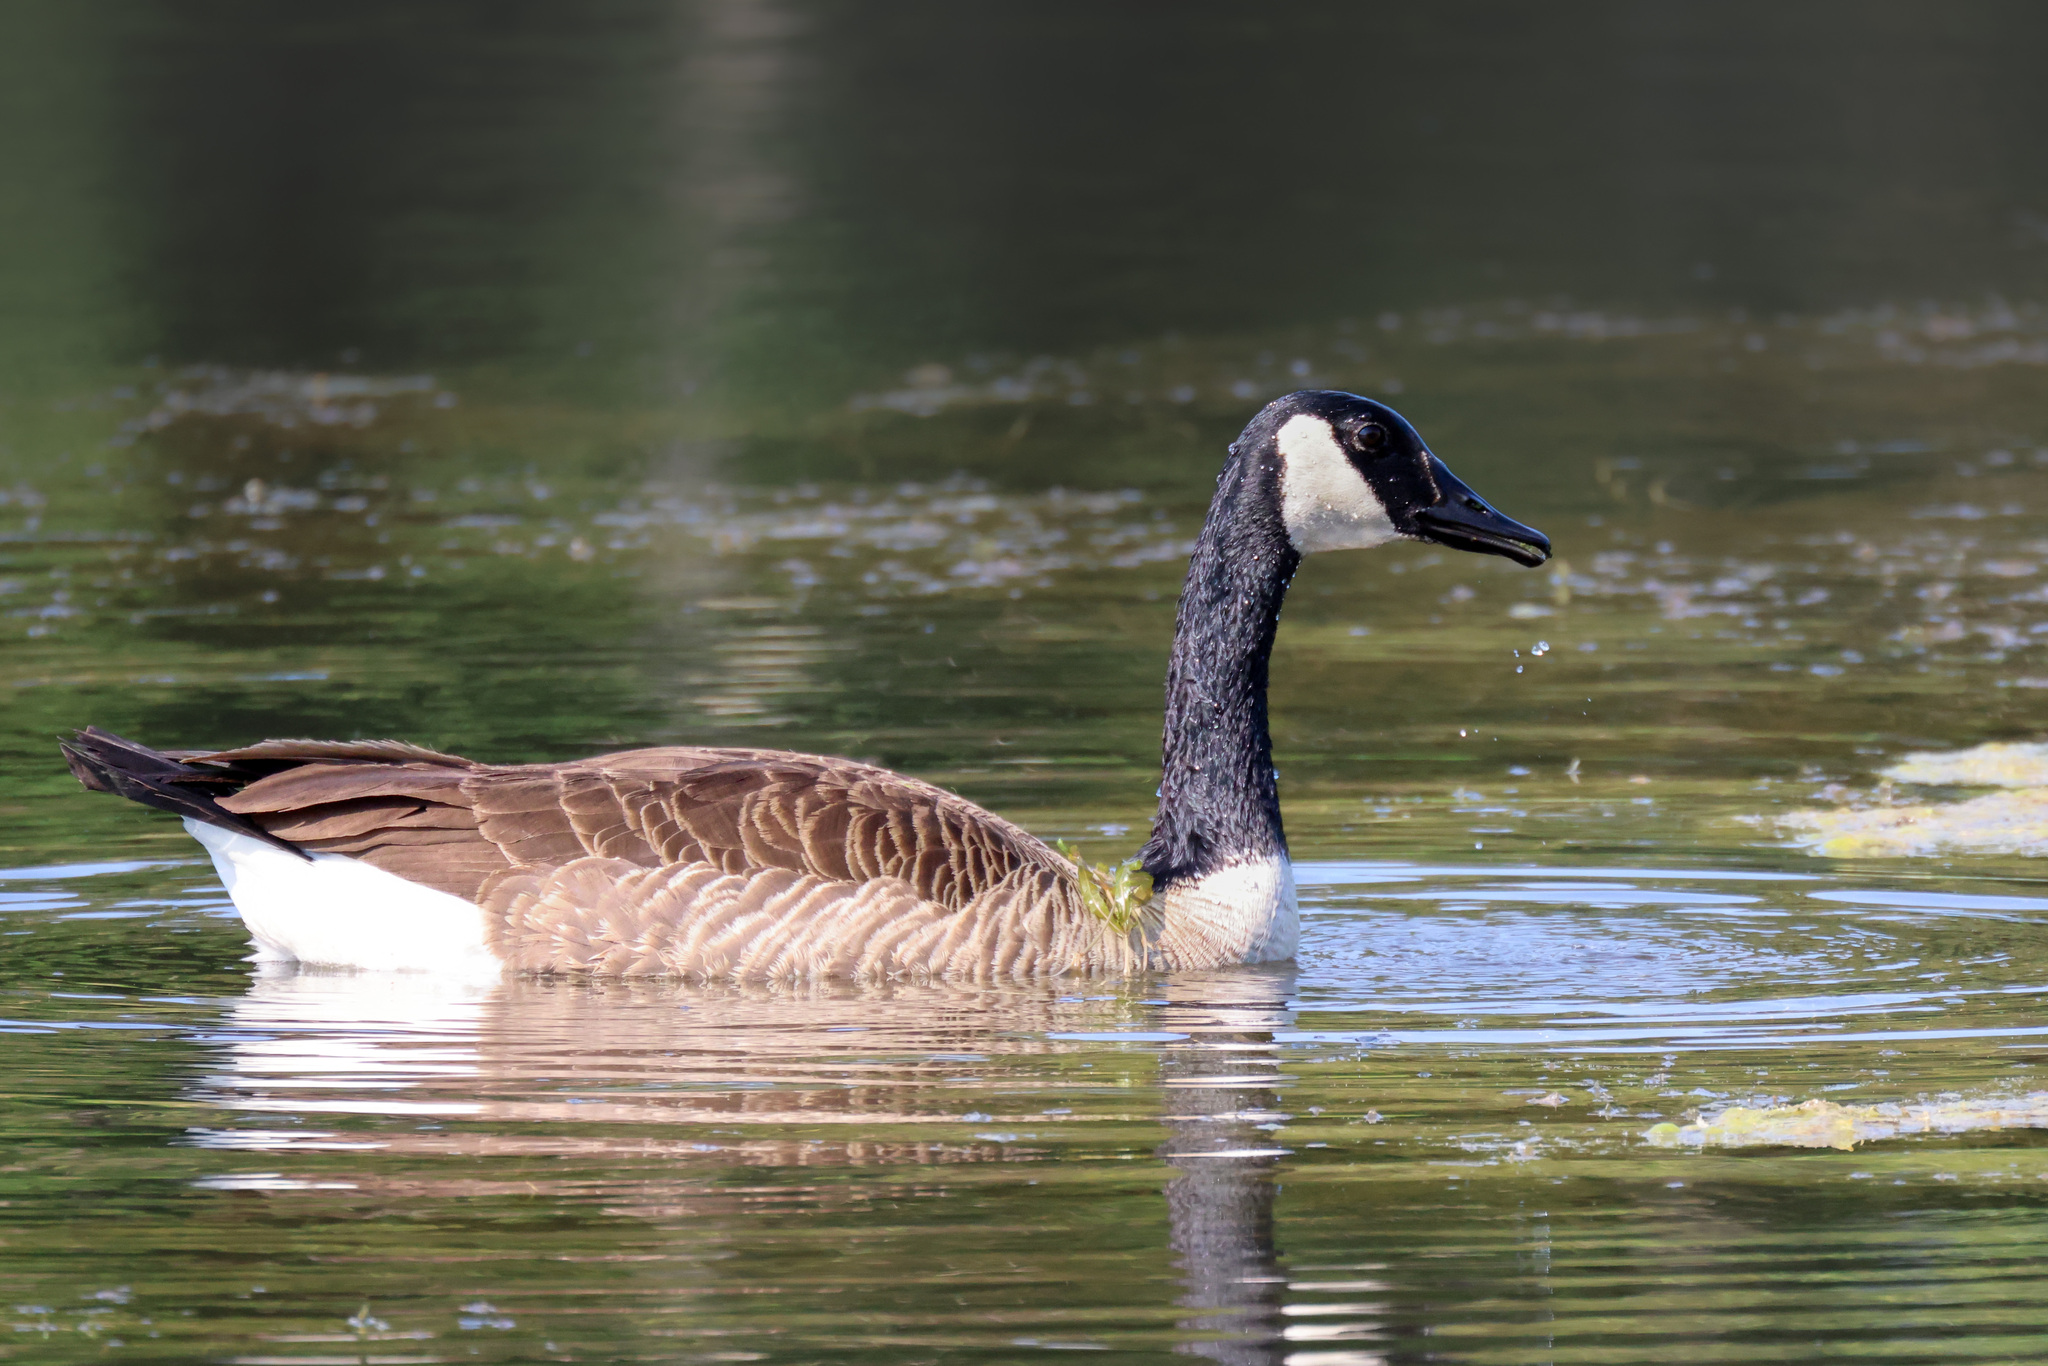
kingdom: Animalia
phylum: Chordata
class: Aves
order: Anseriformes
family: Anatidae
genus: Branta
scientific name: Branta canadensis
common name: Canada goose
